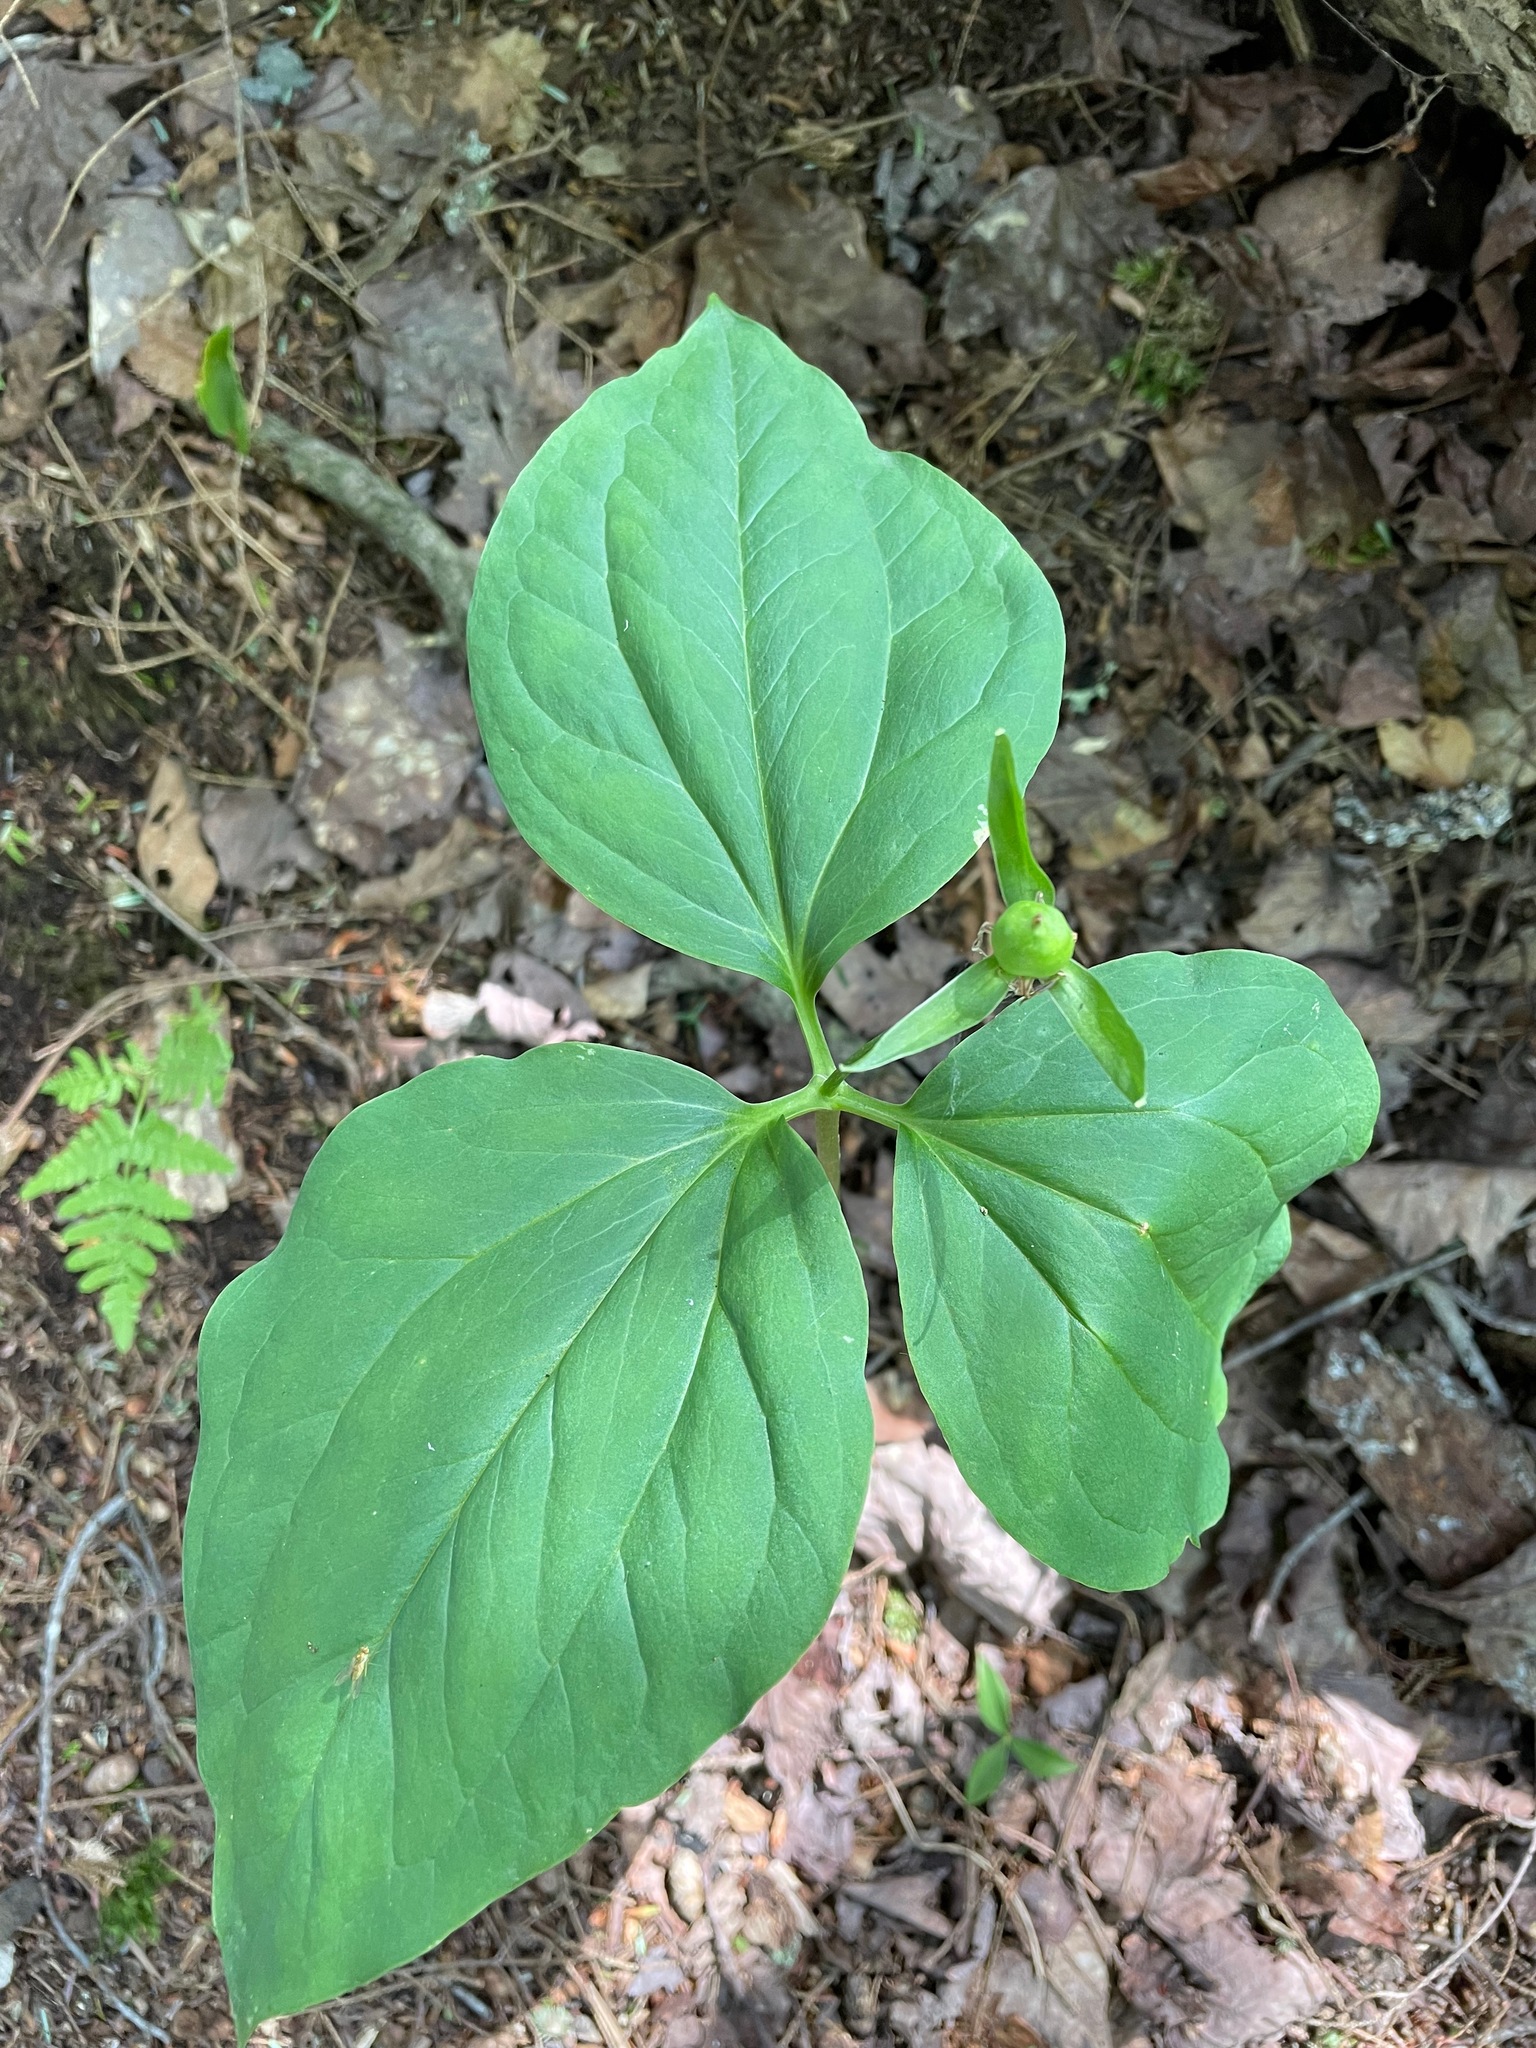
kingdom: Plantae
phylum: Tracheophyta
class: Liliopsida
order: Liliales
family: Melanthiaceae
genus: Trillium
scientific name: Trillium undulatum
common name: Paint trillium
